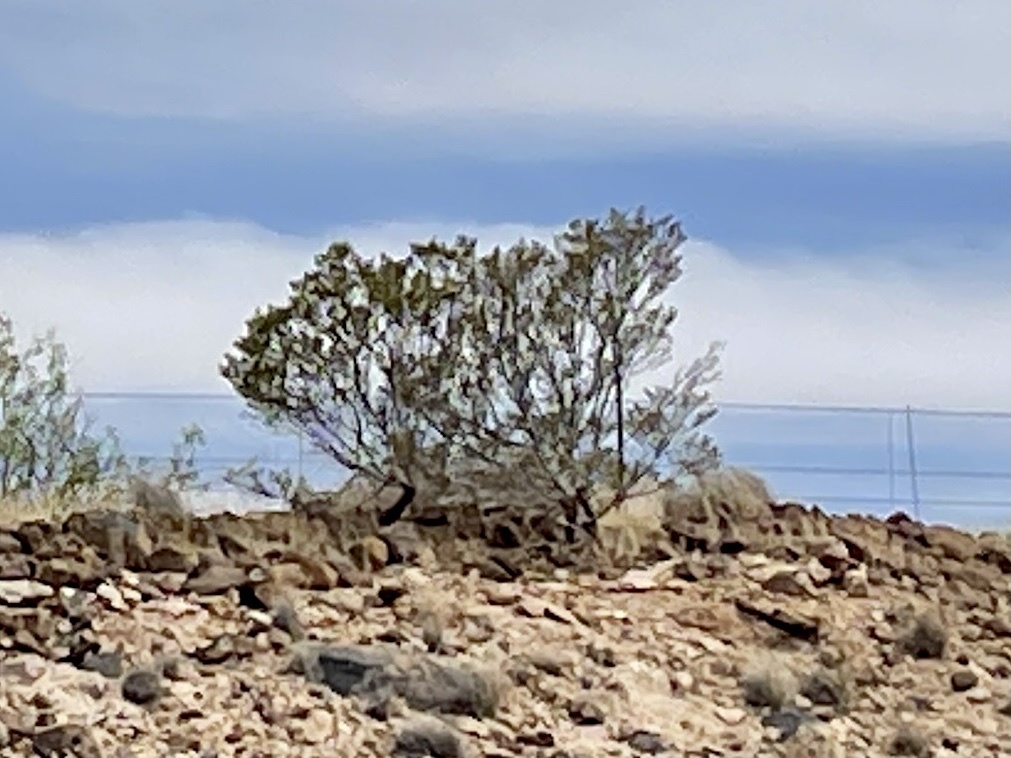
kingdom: Plantae
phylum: Tracheophyta
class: Magnoliopsida
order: Zygophyllales
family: Zygophyllaceae
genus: Larrea
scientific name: Larrea tridentata
